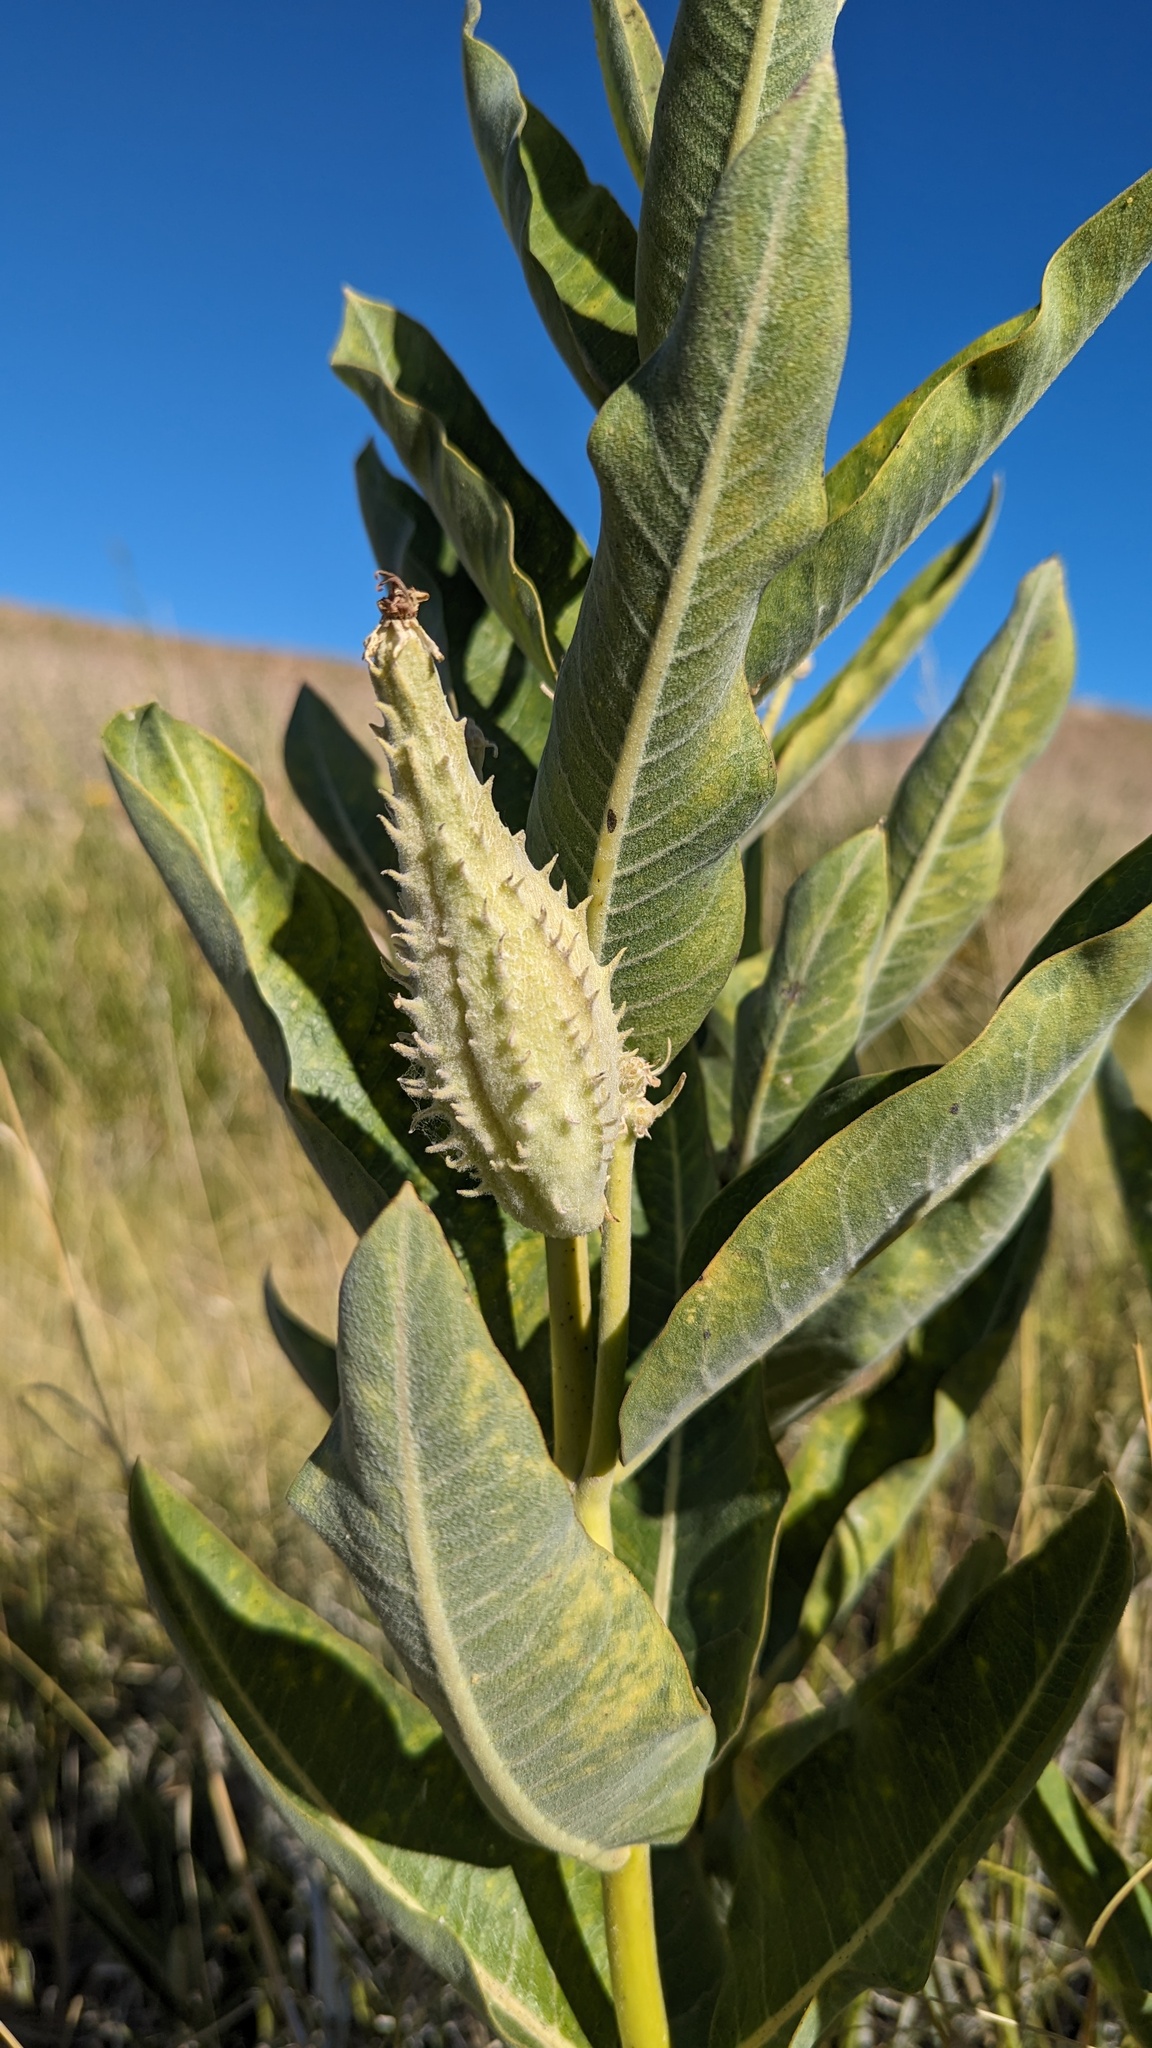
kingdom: Plantae
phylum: Tracheophyta
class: Magnoliopsida
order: Gentianales
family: Apocynaceae
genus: Asclepias
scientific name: Asclepias speciosa
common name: Showy milkweed
